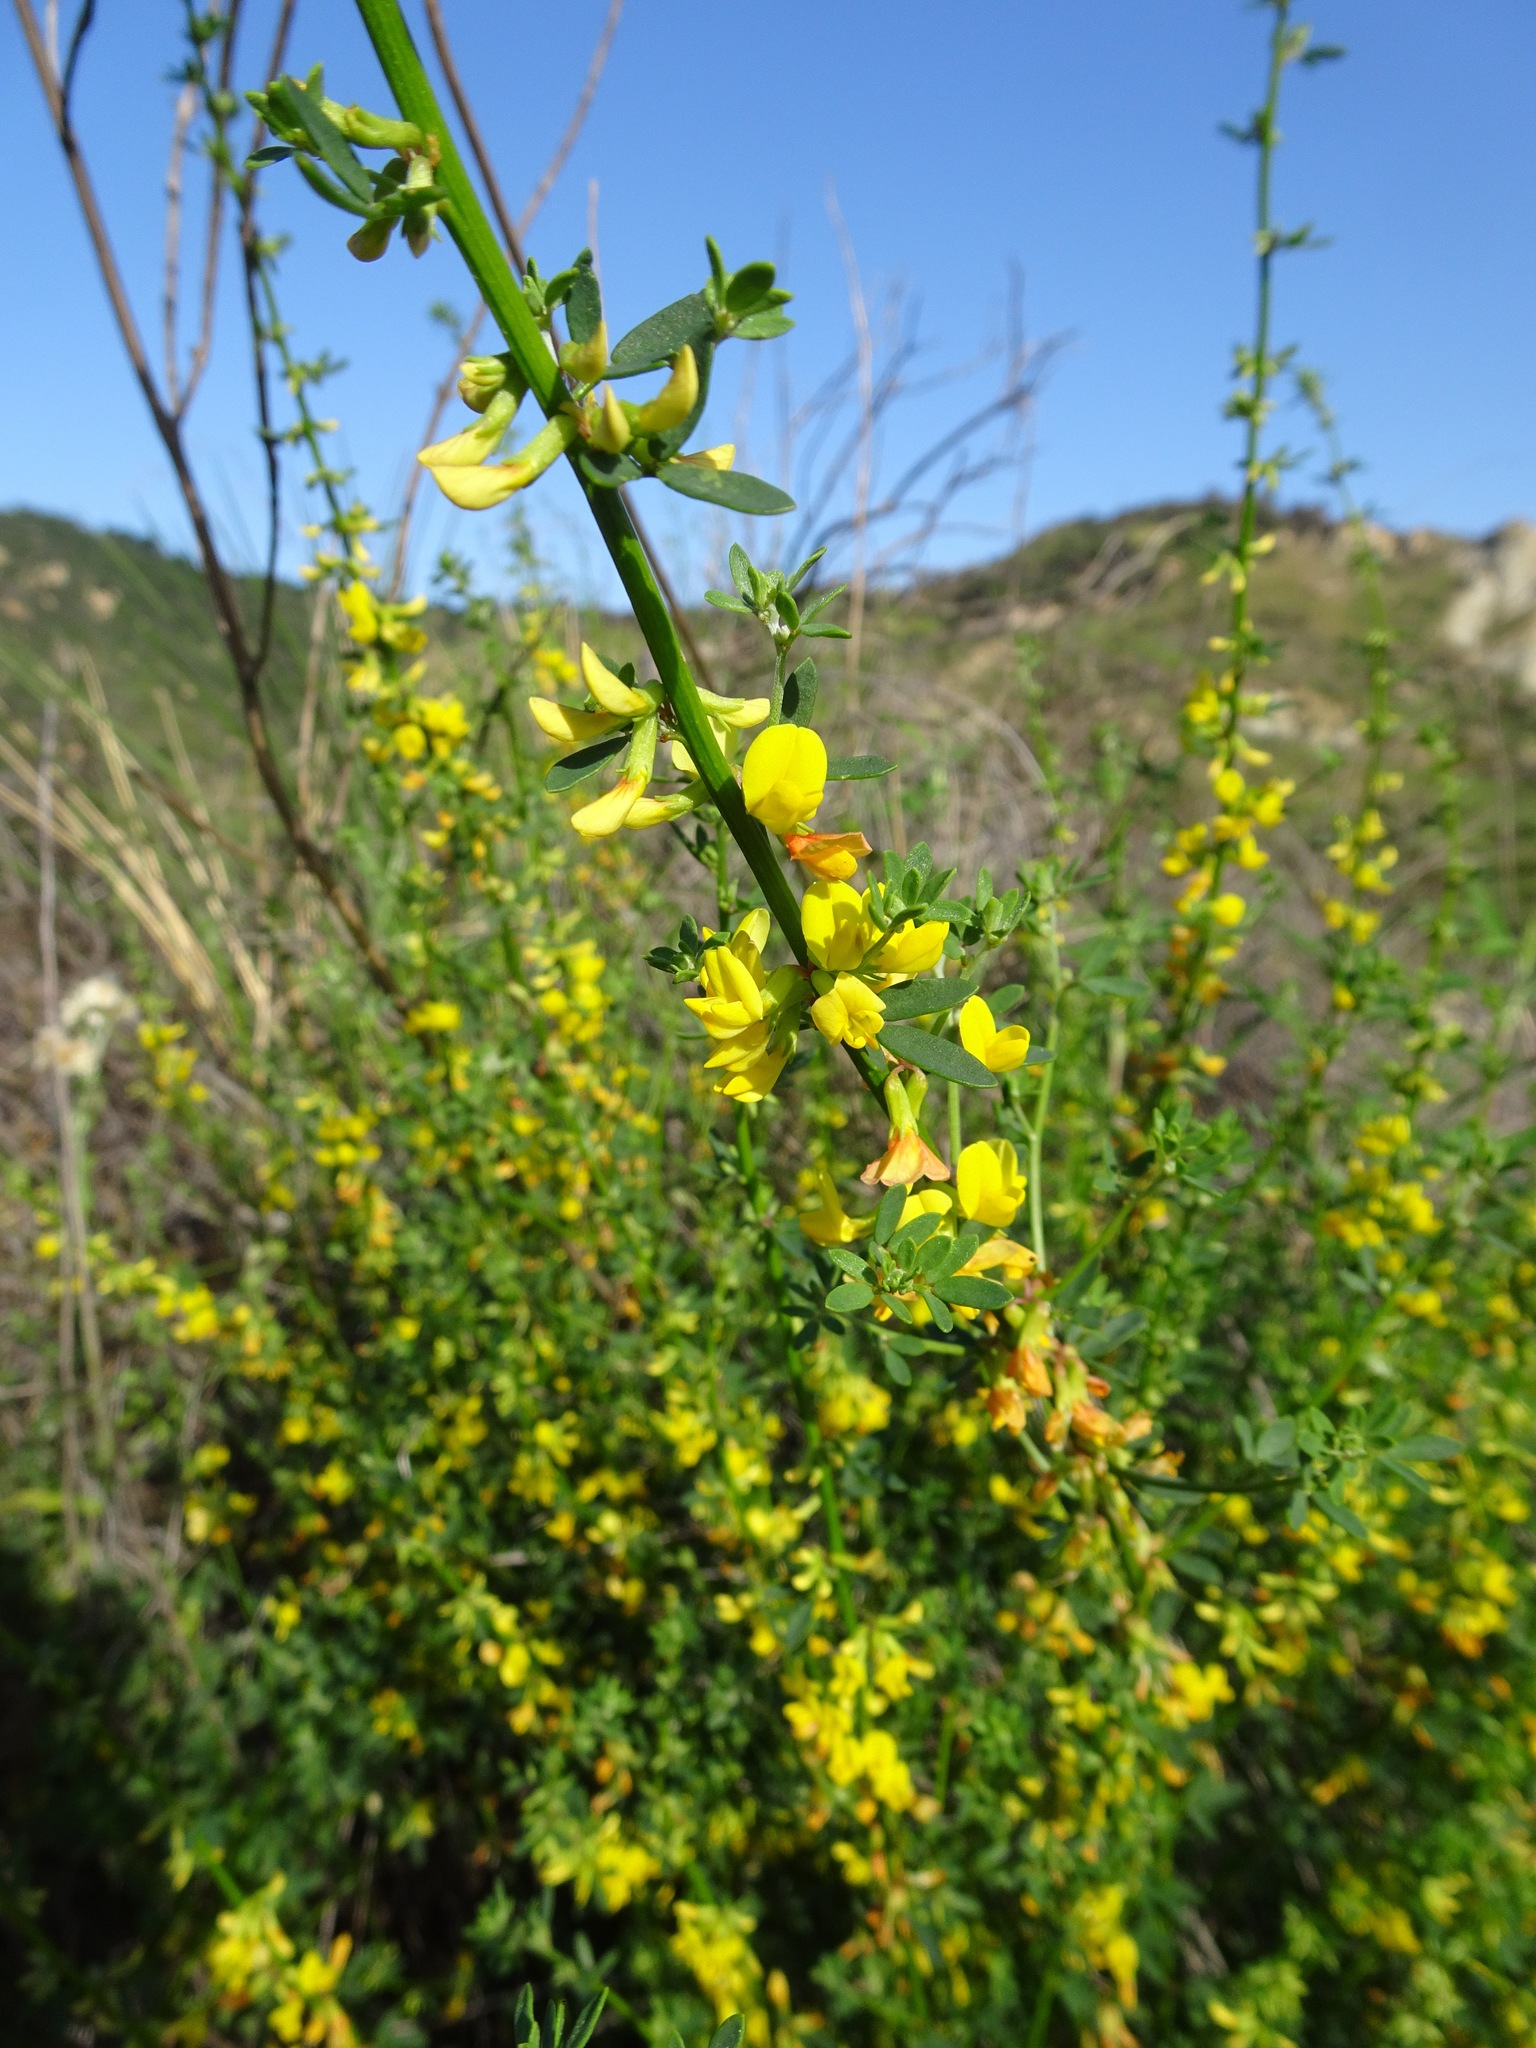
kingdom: Plantae
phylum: Tracheophyta
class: Magnoliopsida
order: Fabales
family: Fabaceae
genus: Acmispon
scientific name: Acmispon glaber
